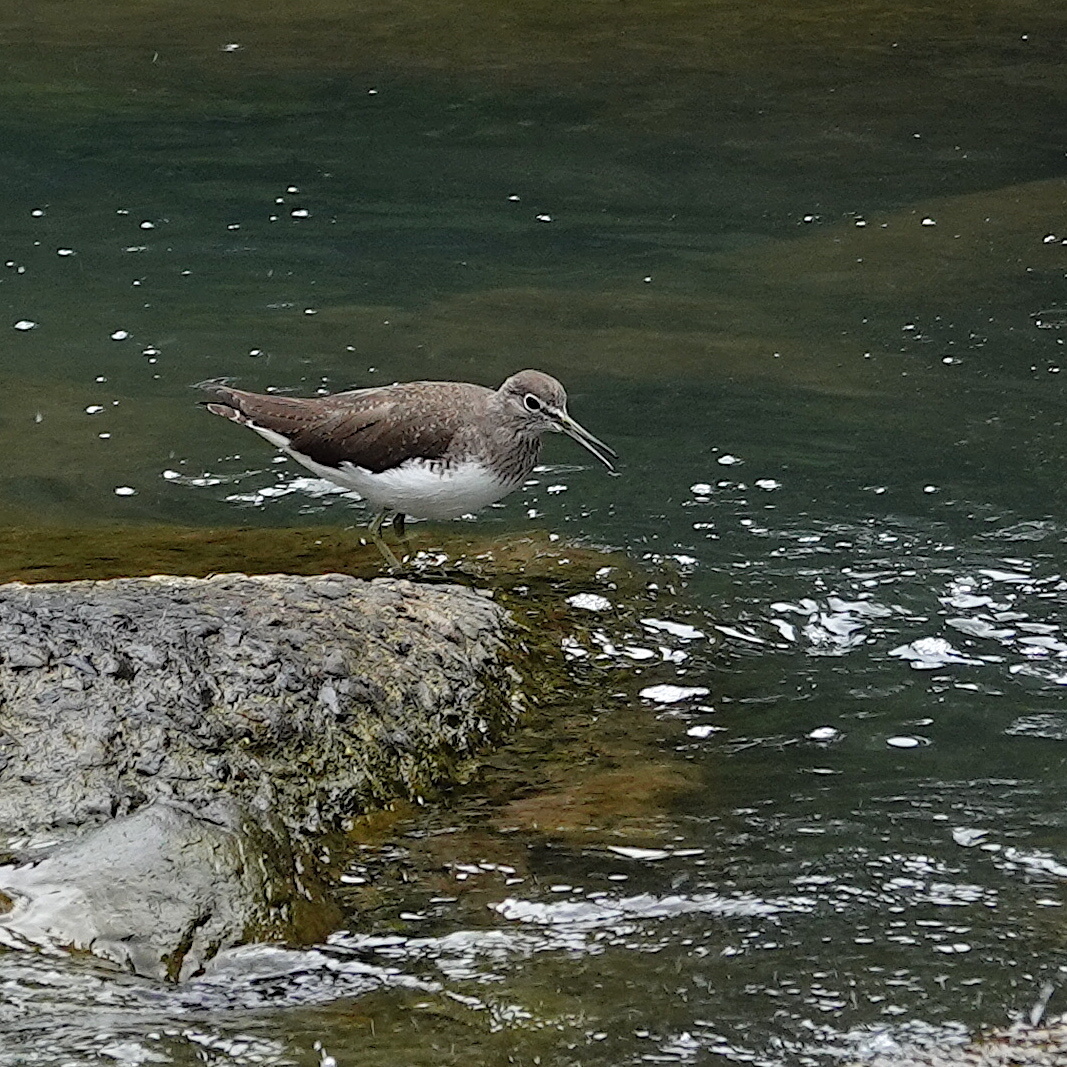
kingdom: Animalia
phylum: Chordata
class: Aves
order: Charadriiformes
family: Scolopacidae
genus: Tringa
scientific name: Tringa ochropus
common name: Green sandpiper
